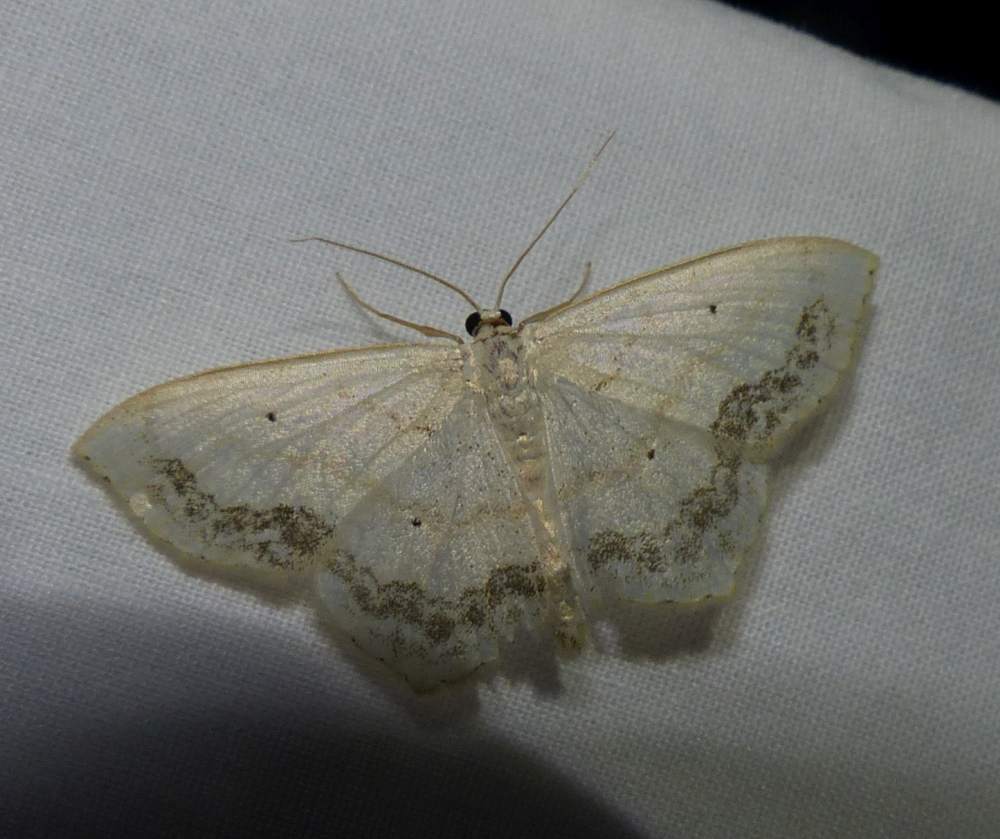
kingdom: Animalia
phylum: Arthropoda
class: Insecta
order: Lepidoptera
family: Geometridae
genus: Scopula
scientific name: Scopula limboundata
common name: Large lace border
